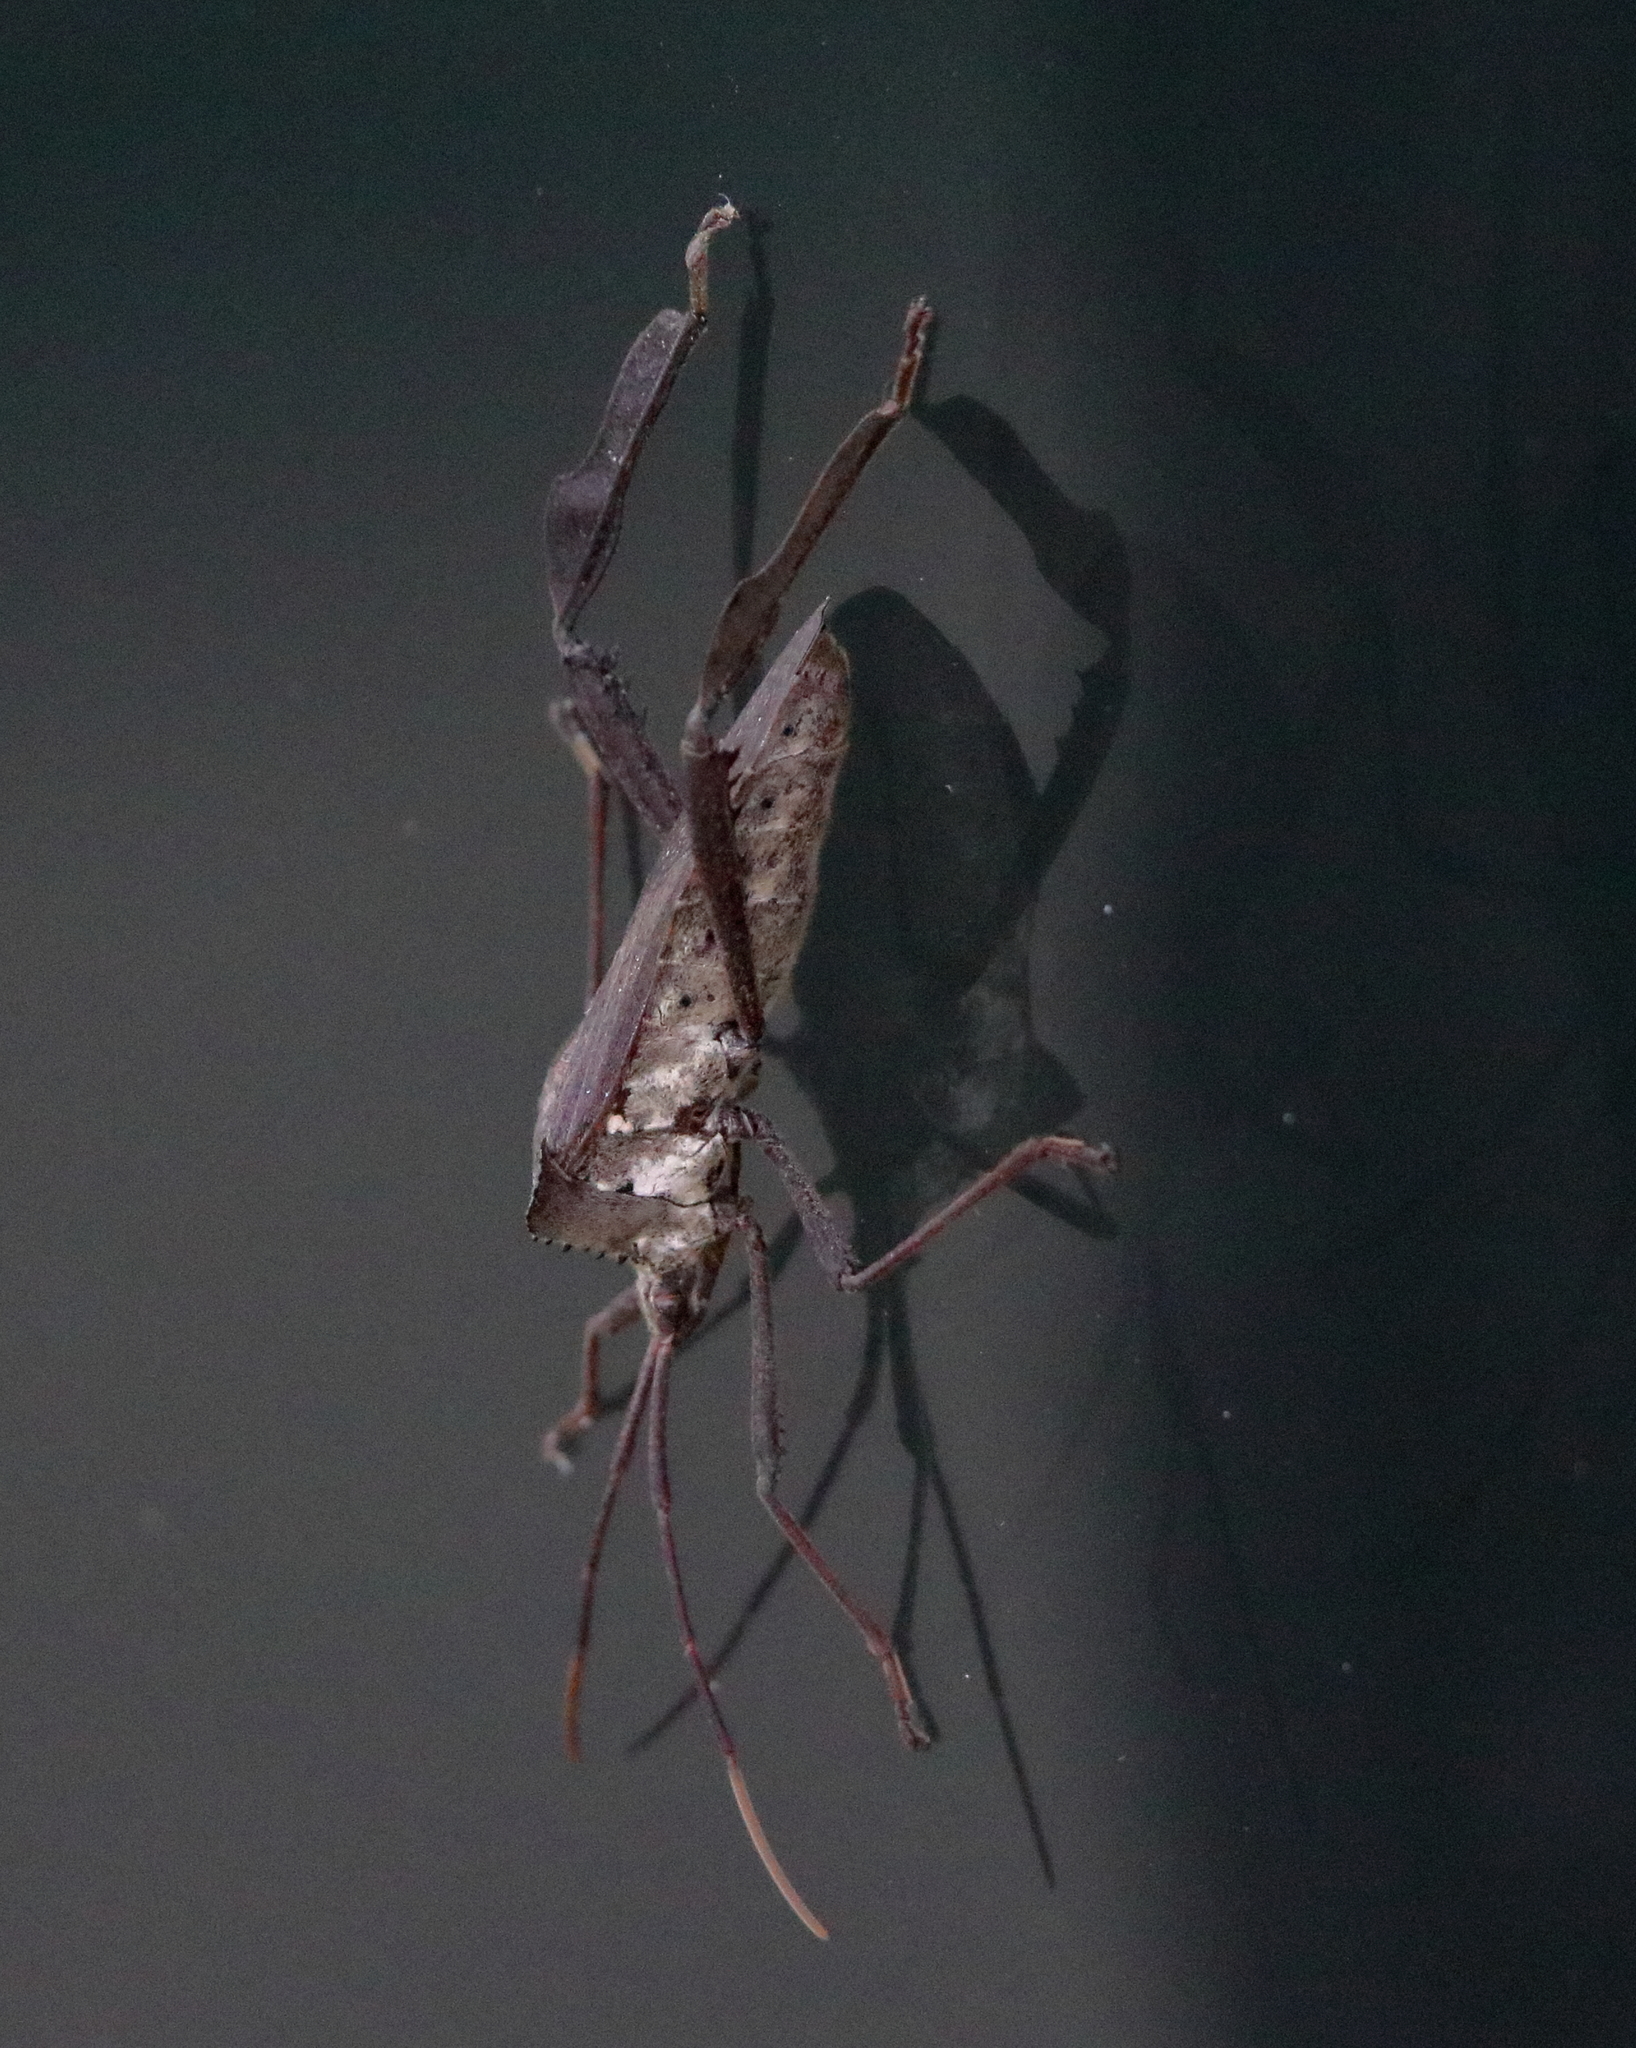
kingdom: Animalia
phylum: Arthropoda
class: Insecta
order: Hemiptera
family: Coreidae
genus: Acanthocephala
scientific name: Acanthocephala declivis
